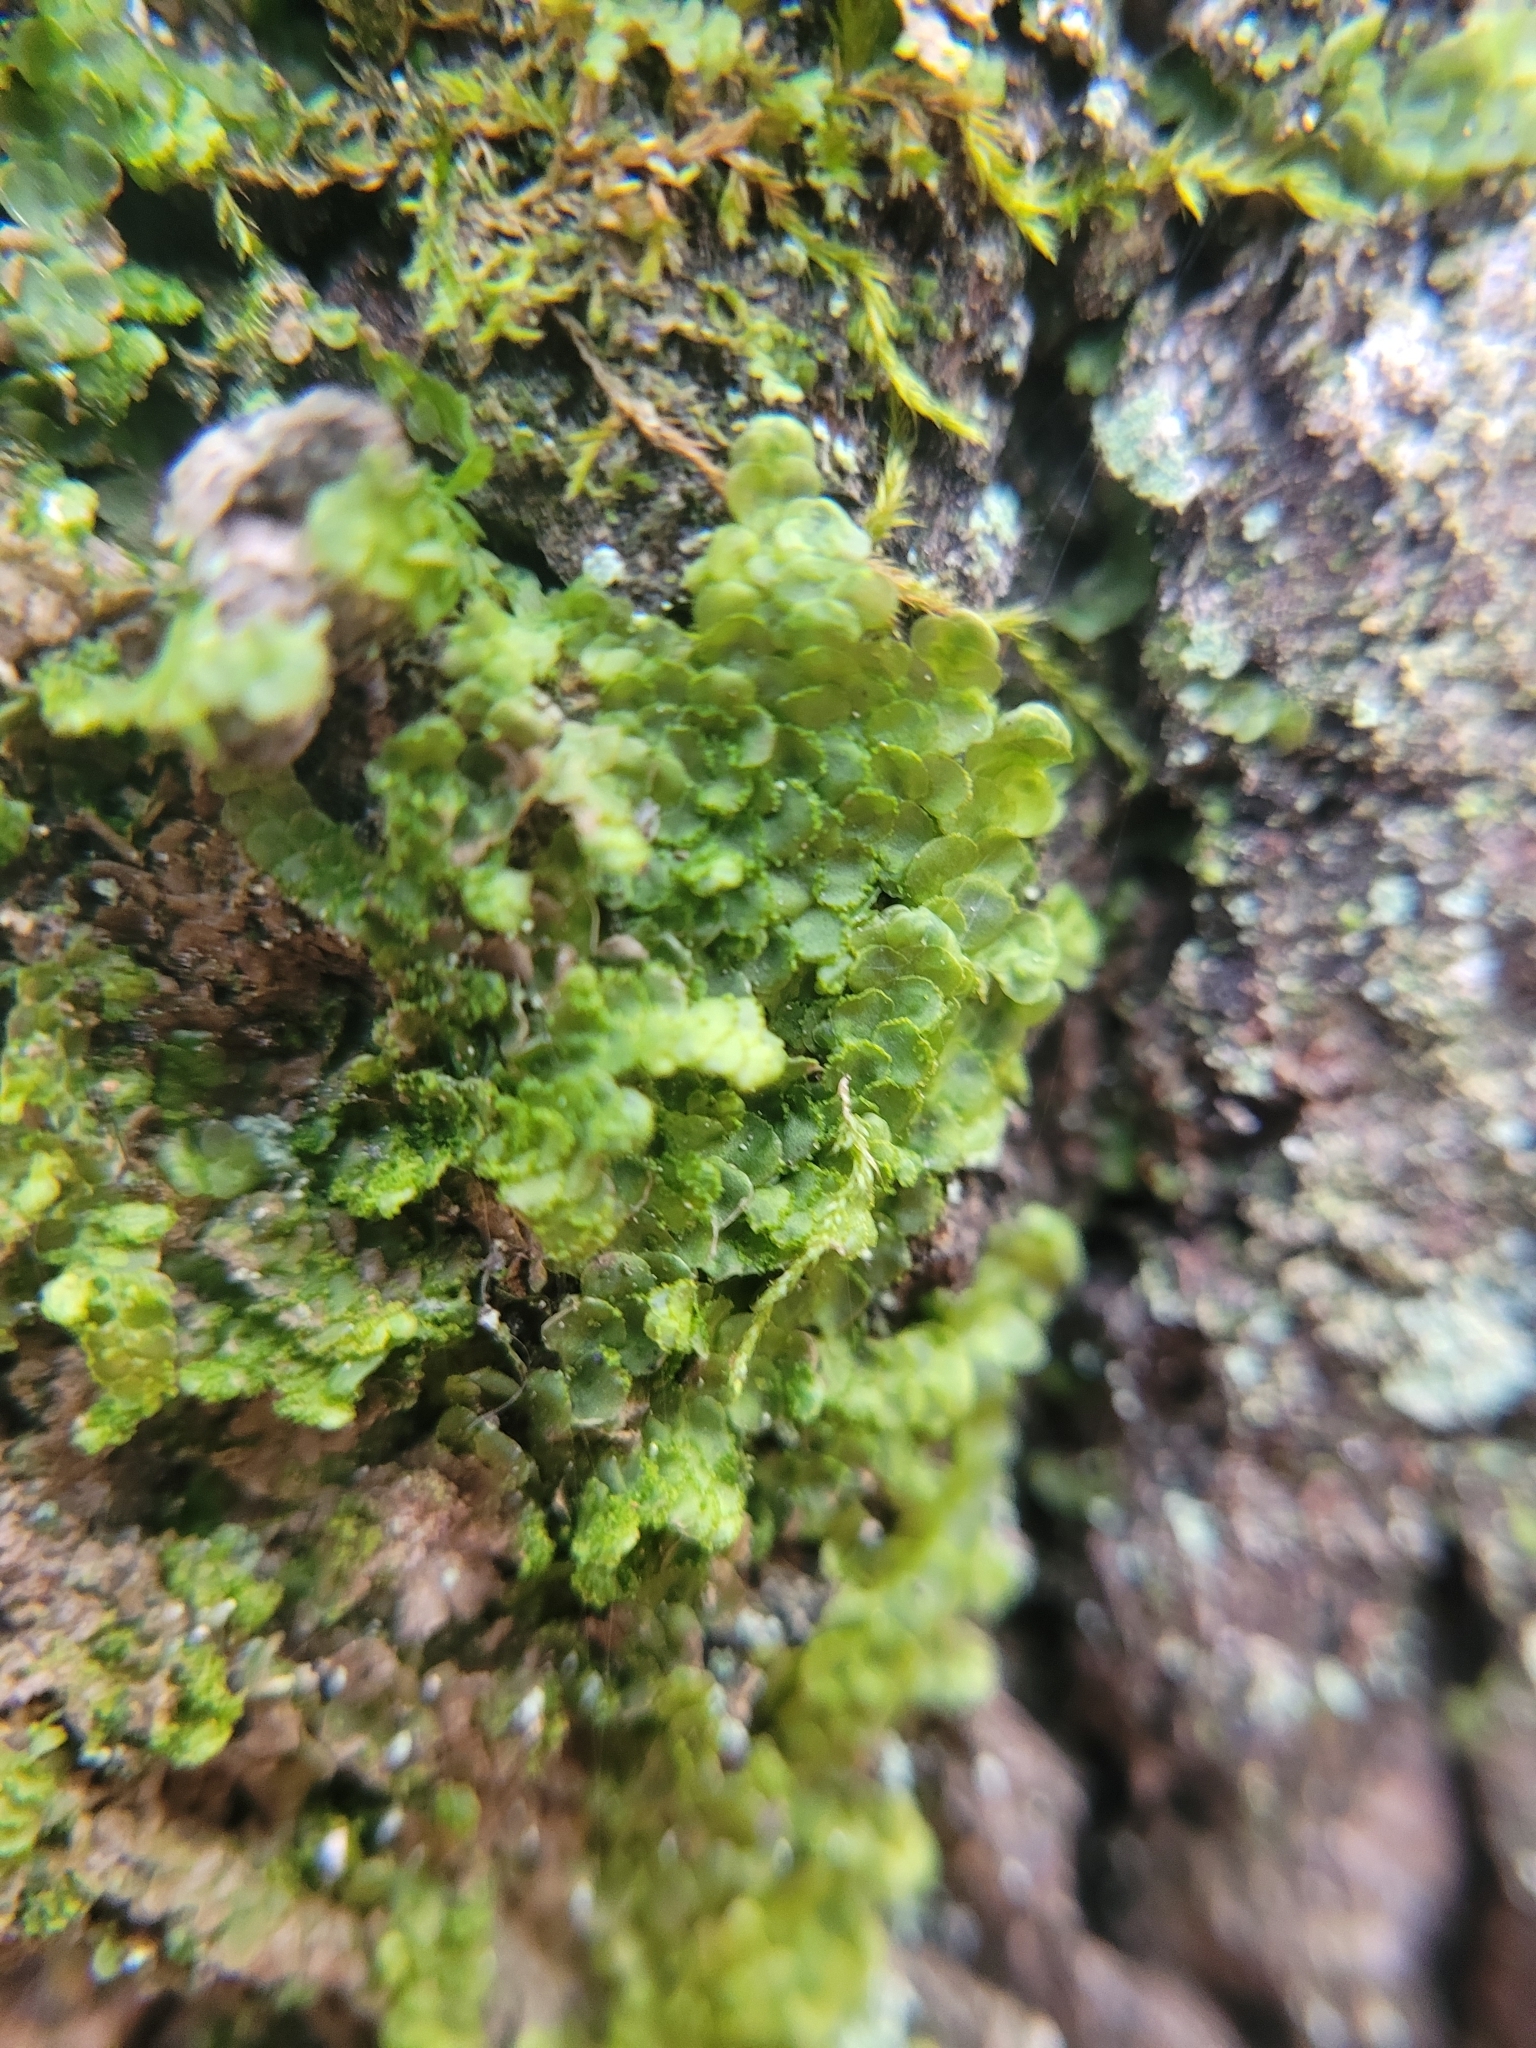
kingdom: Plantae
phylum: Marchantiophyta
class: Jungermanniopsida
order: Porellales
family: Radulaceae
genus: Radula
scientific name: Radula complanata
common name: Flat-leaved scalewort
